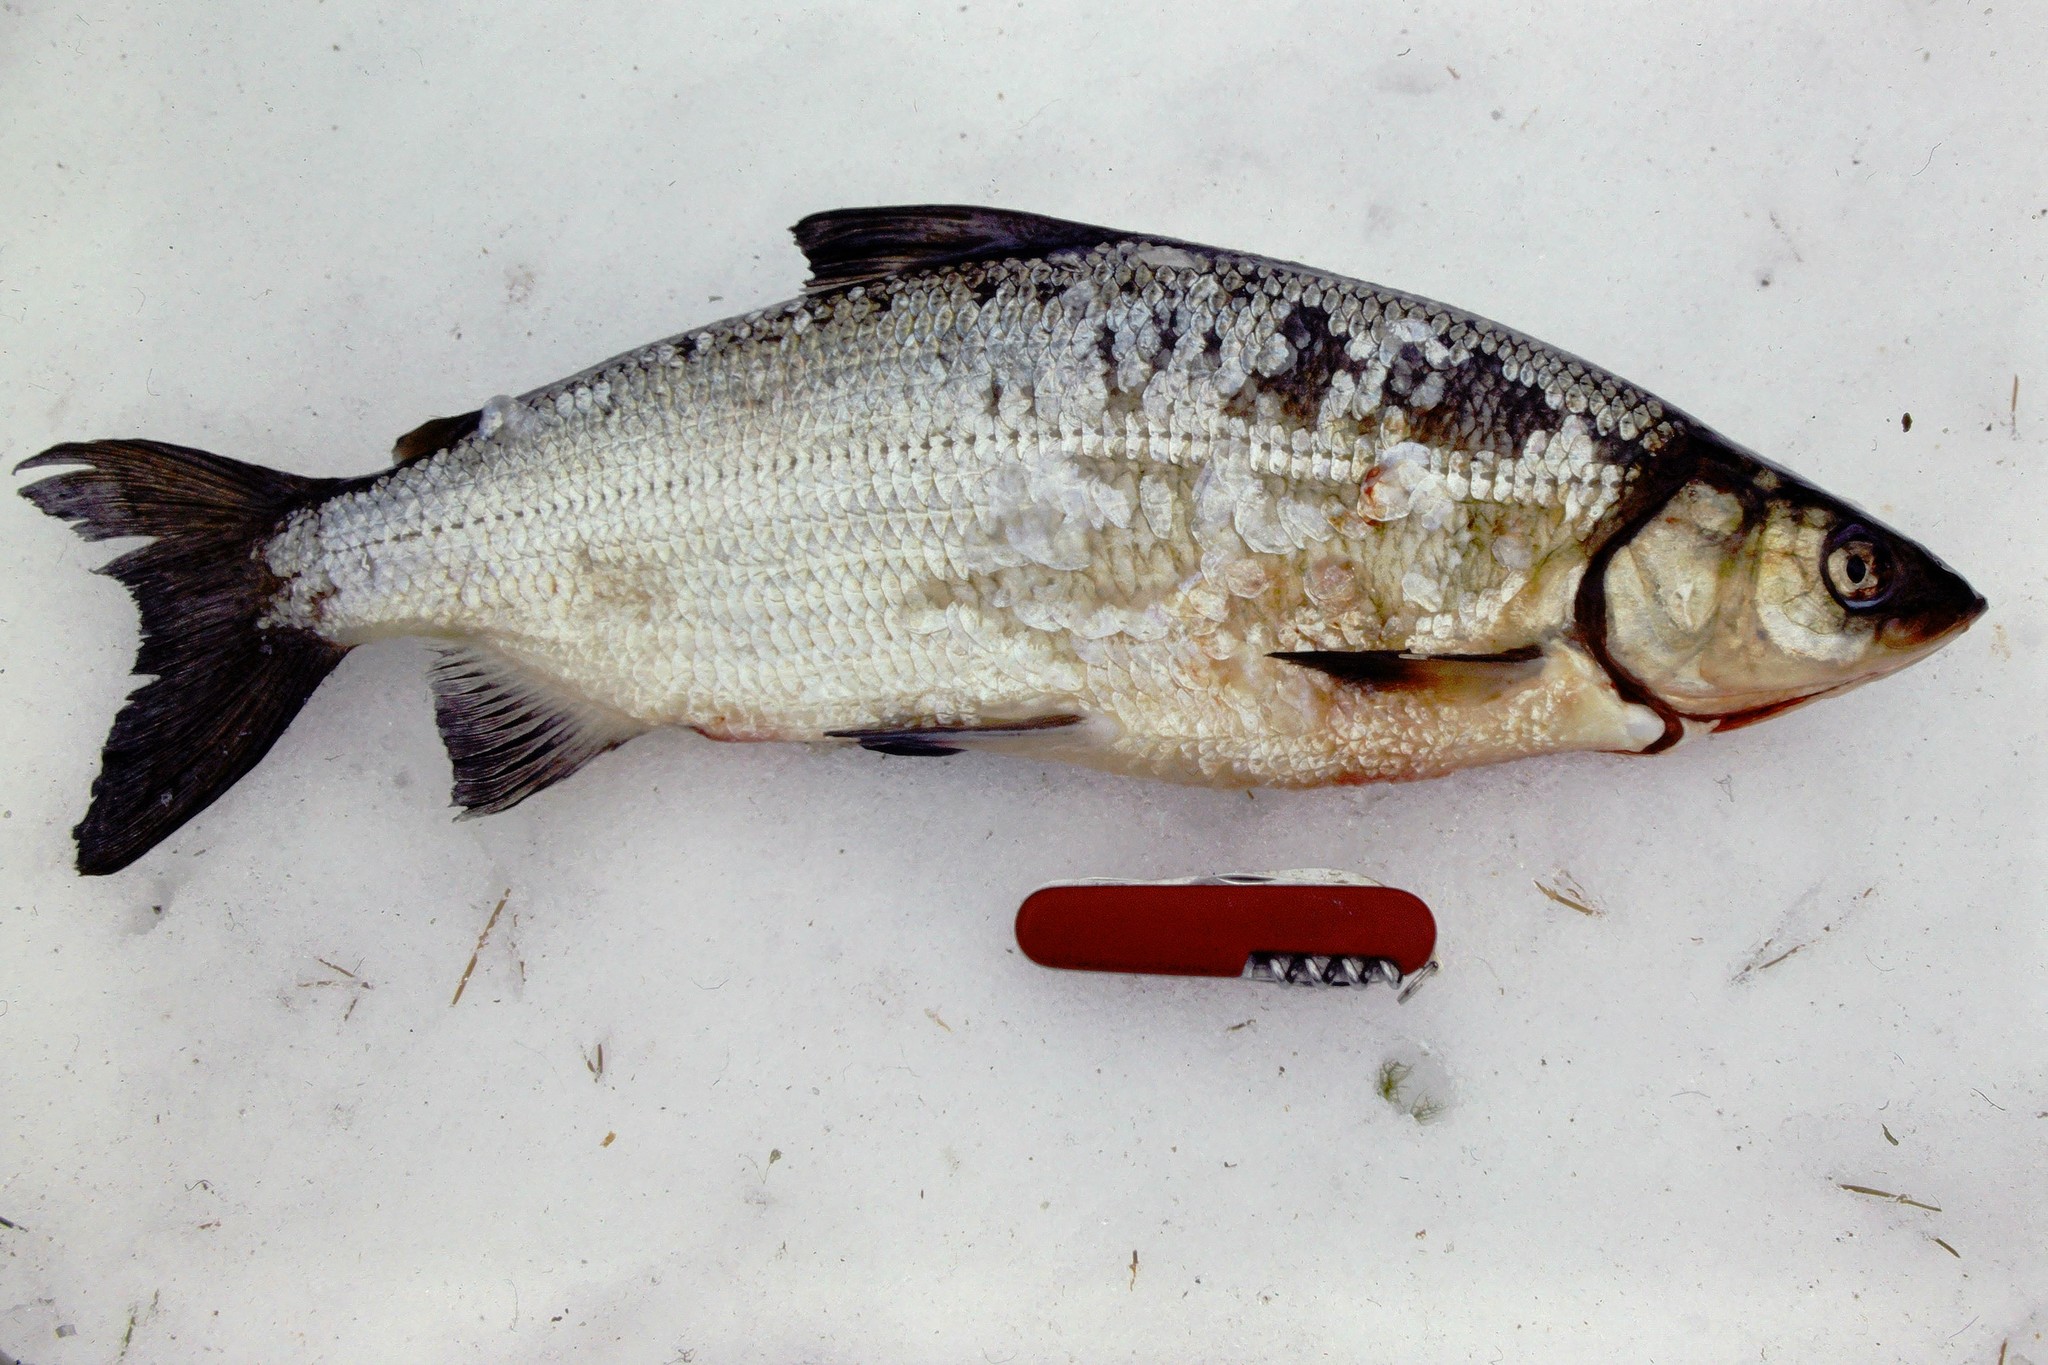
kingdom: Animalia
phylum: Chordata
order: Salmoniformes
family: Salmonidae
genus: Coregonus
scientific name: Coregonus artedi
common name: Cisco
